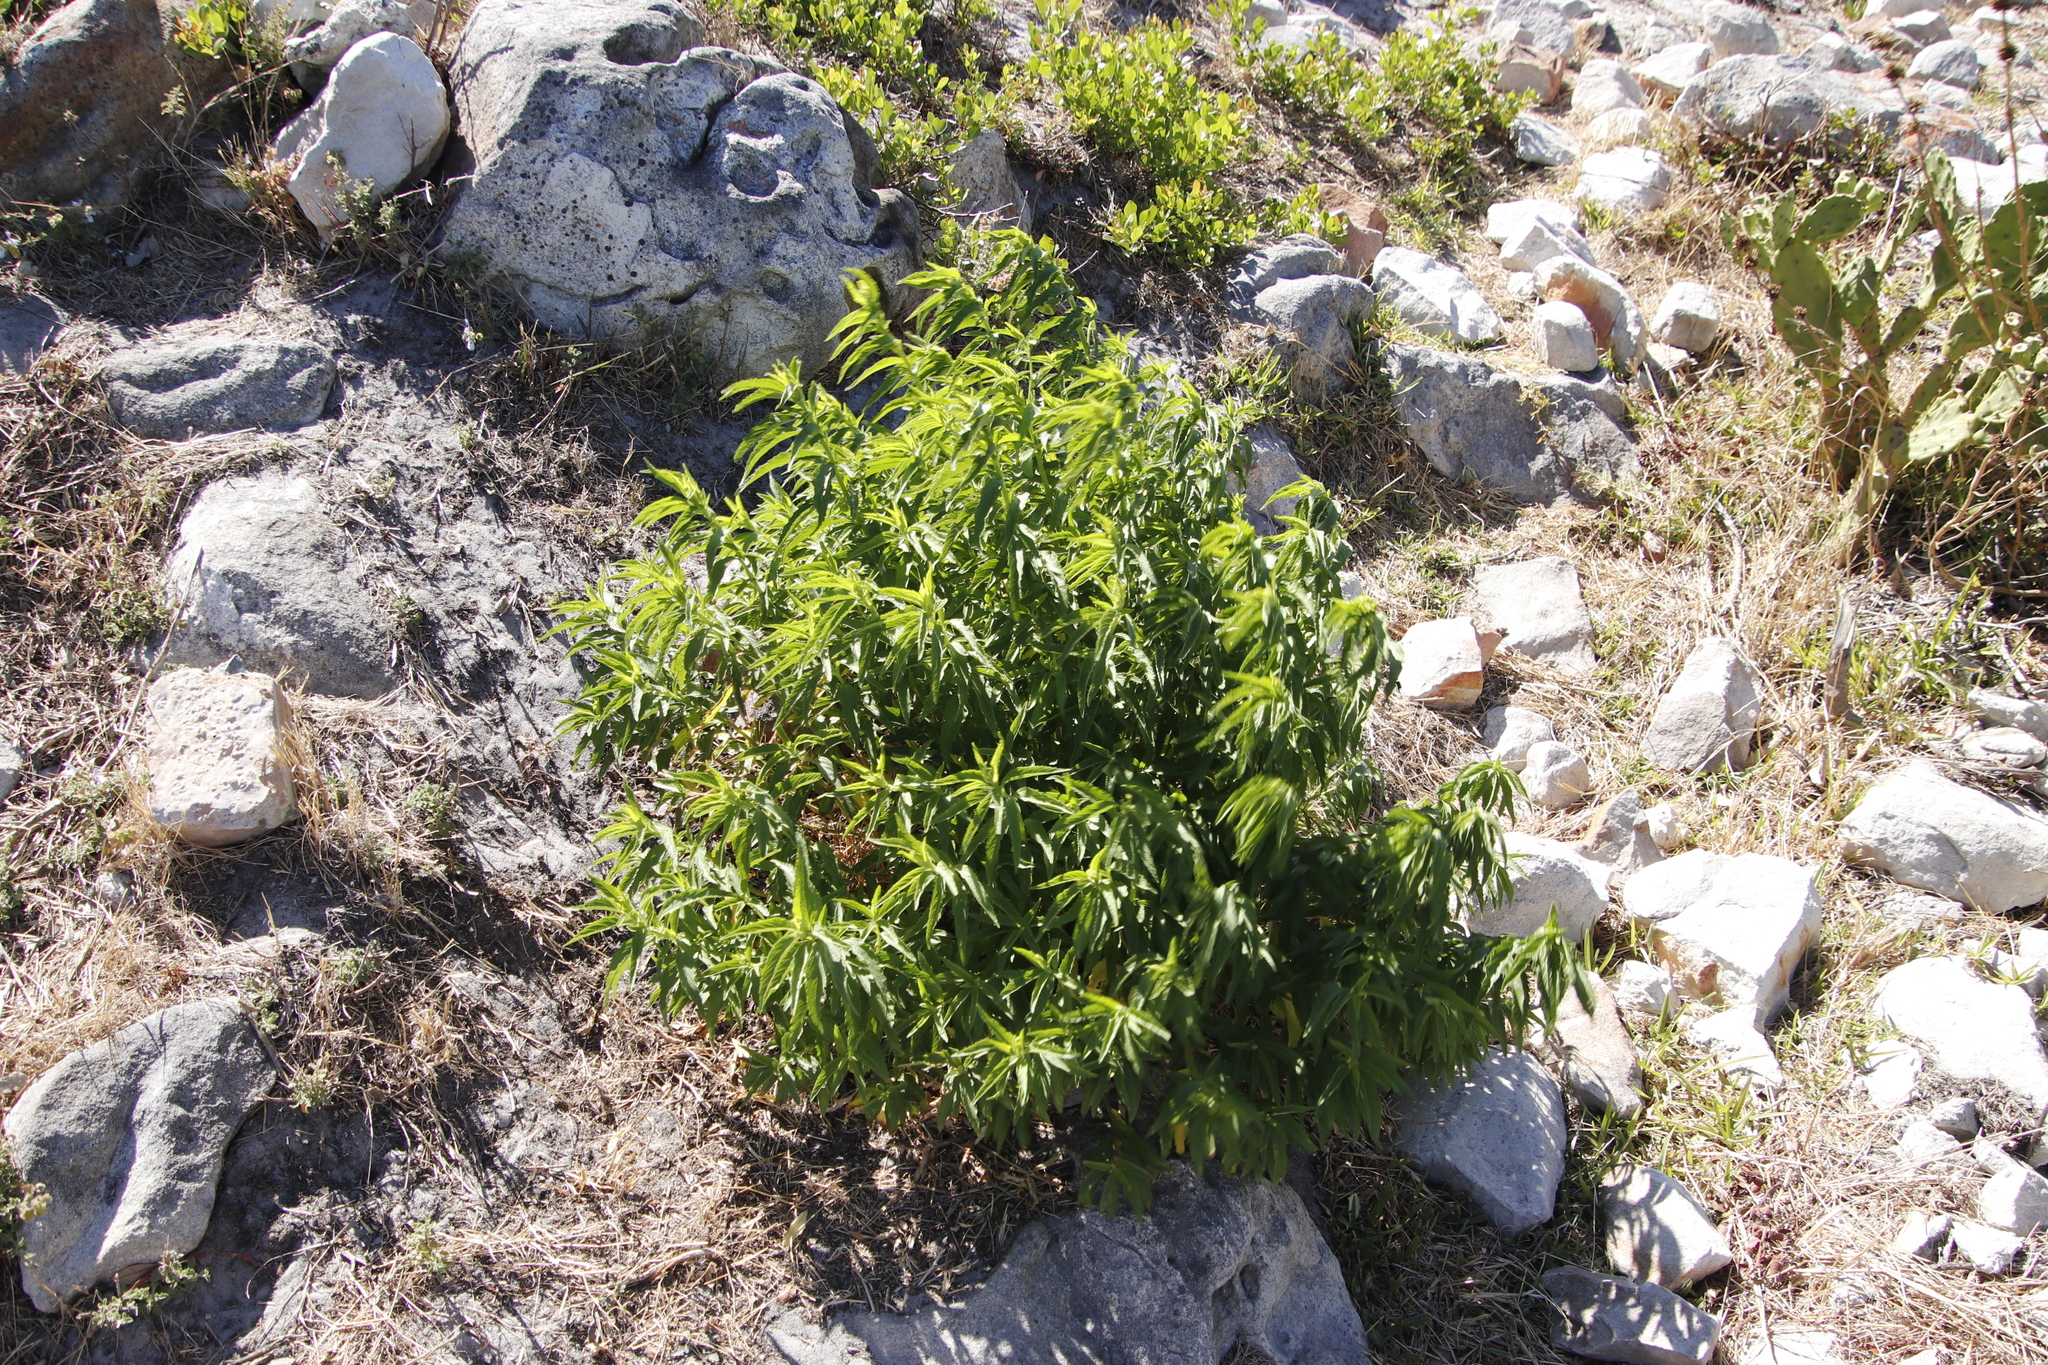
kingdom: Plantae
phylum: Tracheophyta
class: Magnoliopsida
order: Lamiales
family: Lamiaceae
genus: Leonotis
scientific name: Leonotis leonurus
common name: Lion's ear
